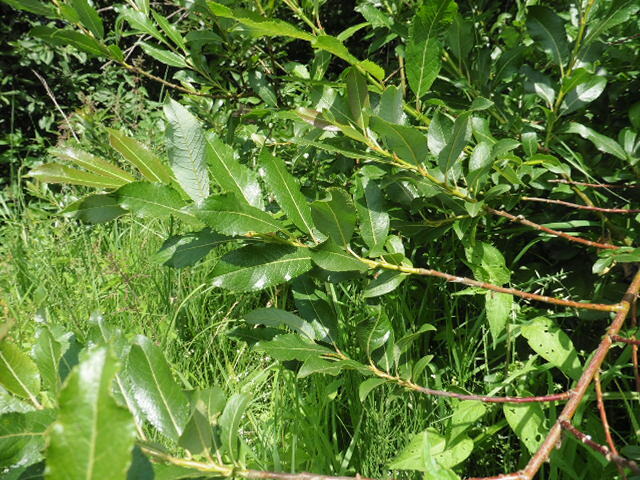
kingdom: Plantae
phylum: Tracheophyta
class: Magnoliopsida
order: Malpighiales
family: Salicaceae
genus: Salix
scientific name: Salix myrsinifolia
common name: Dark-leaved willow
